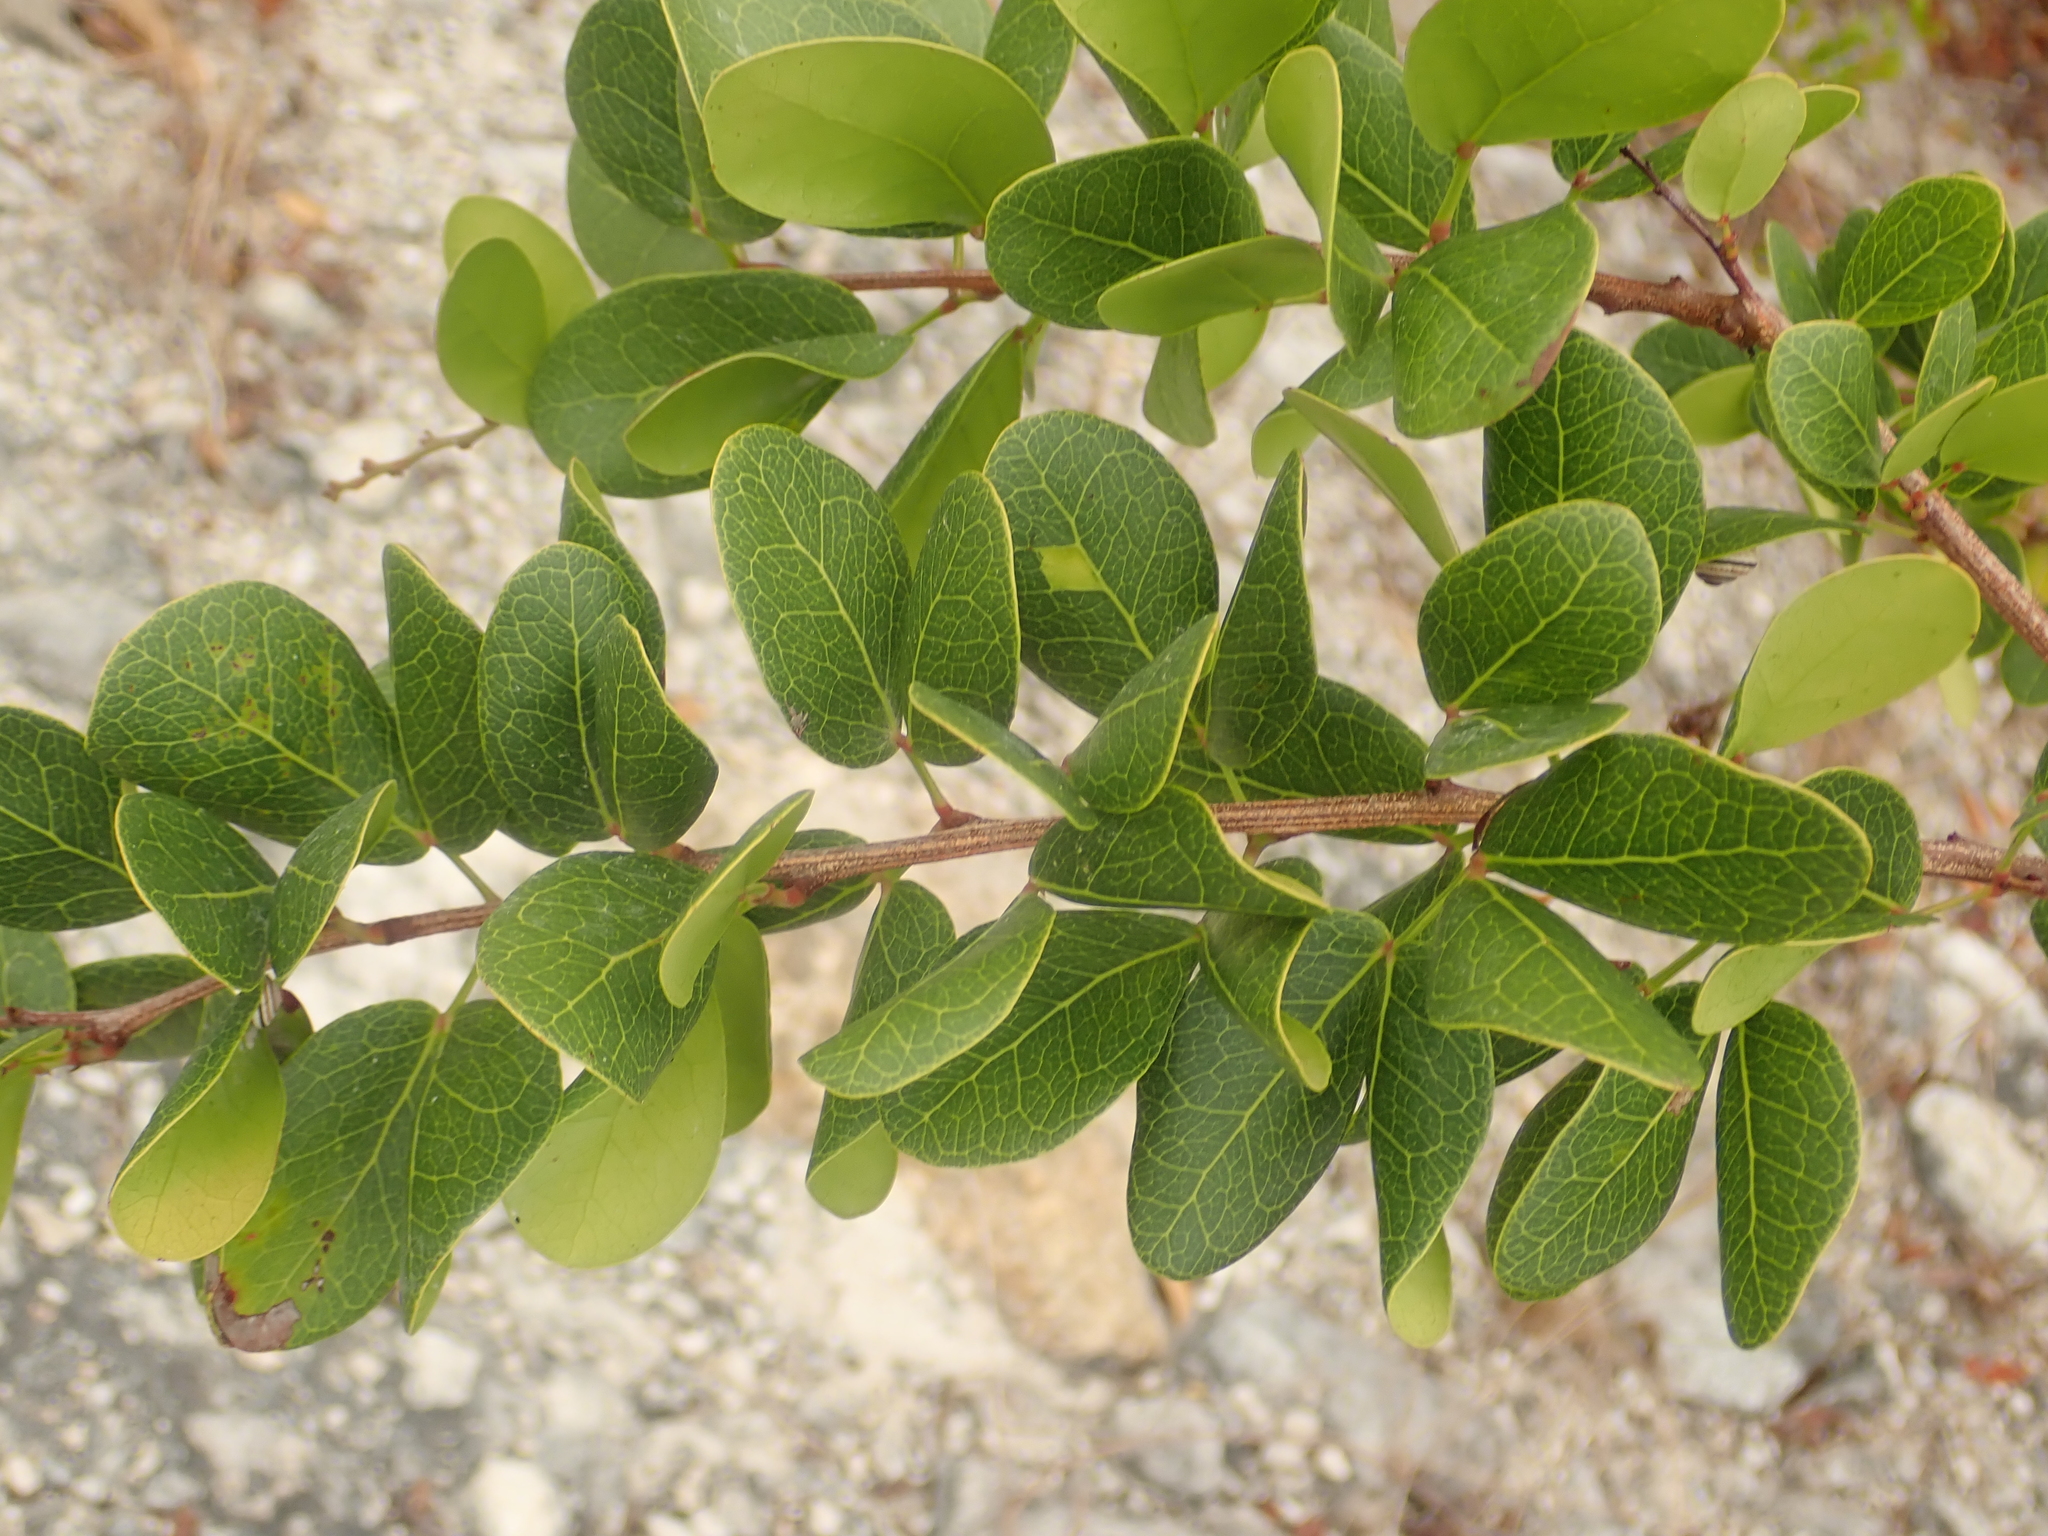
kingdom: Plantae
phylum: Tracheophyta
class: Magnoliopsida
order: Fabales
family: Fabaceae
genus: Pithecellobium
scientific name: Pithecellobium dulce
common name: Monkeypod
